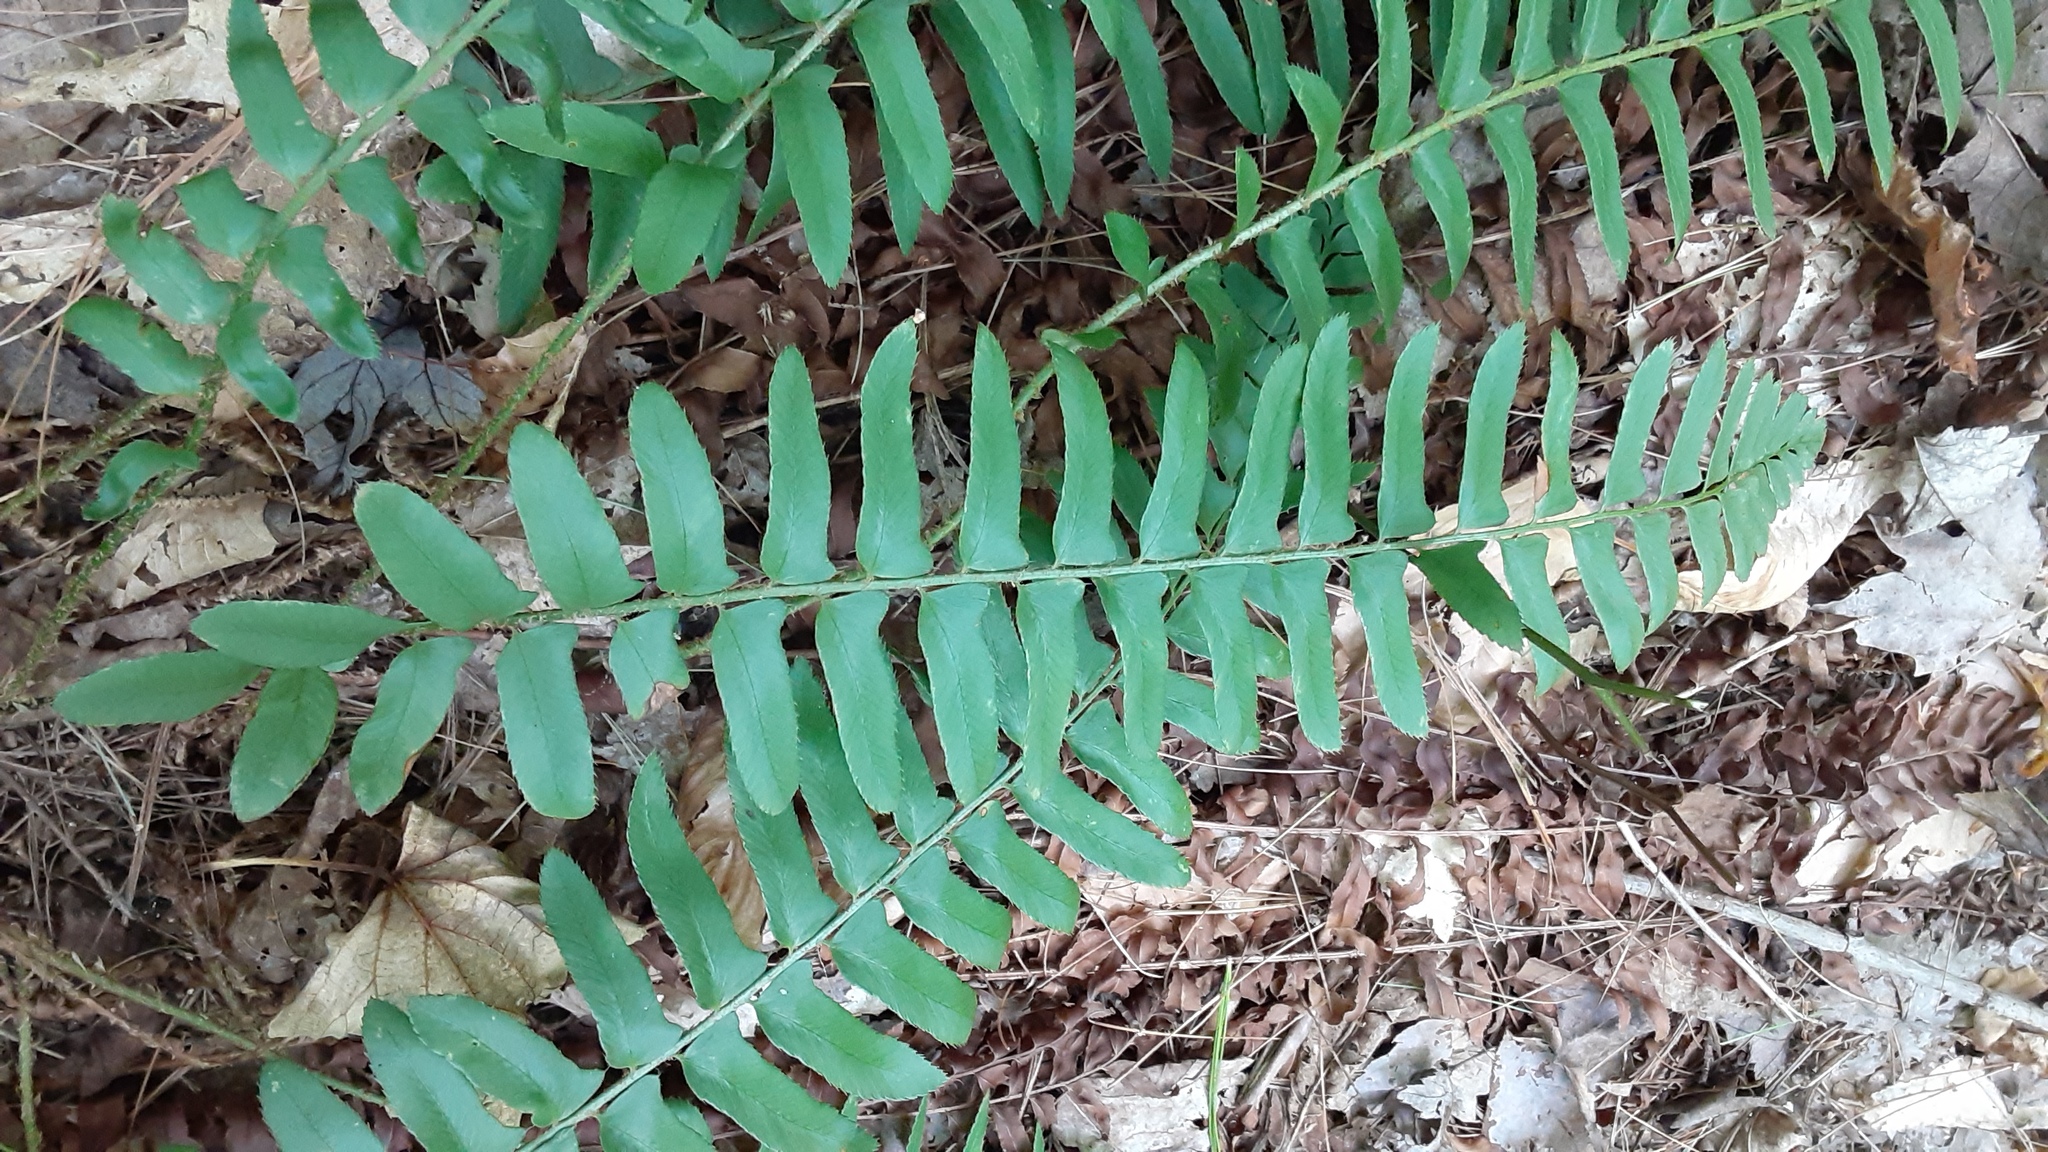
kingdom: Plantae
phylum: Tracheophyta
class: Polypodiopsida
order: Polypodiales
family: Dryopteridaceae
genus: Polystichum
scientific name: Polystichum acrostichoides
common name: Christmas fern
